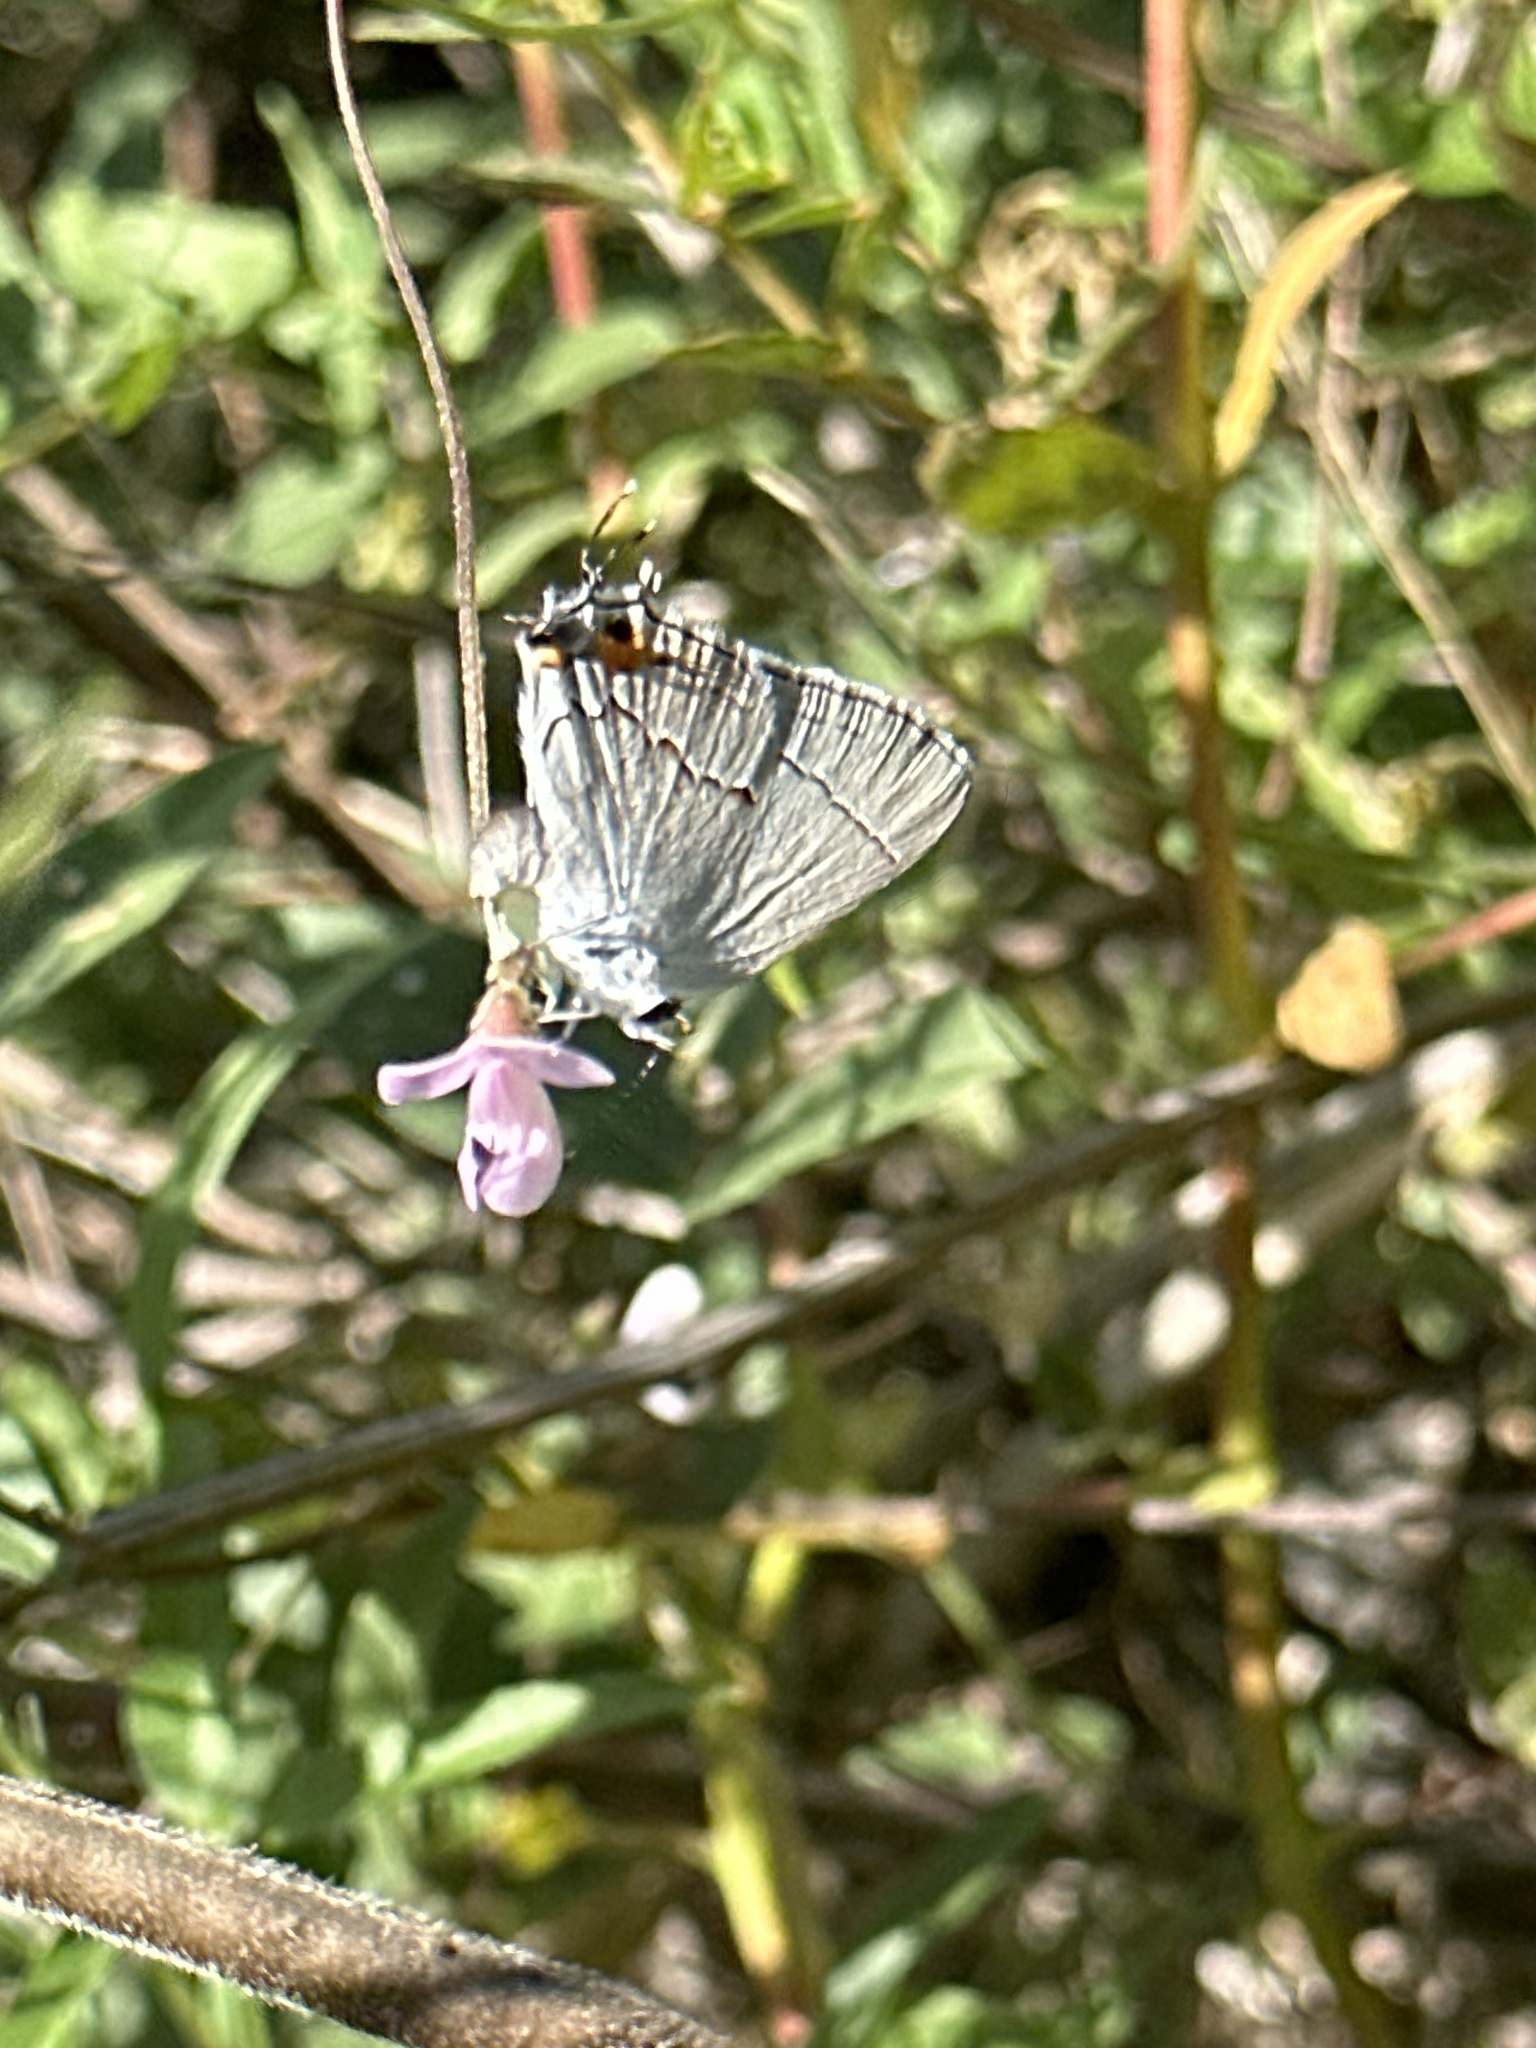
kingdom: Animalia
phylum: Arthropoda
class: Insecta
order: Lepidoptera
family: Lycaenidae
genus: Strymon
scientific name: Strymon melinus
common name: Gray hairstreak
